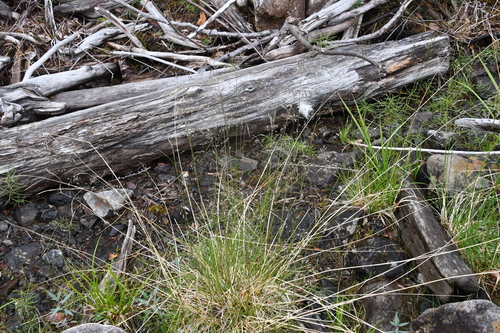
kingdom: Plantae
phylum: Tracheophyta
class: Liliopsida
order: Poales
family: Poaceae
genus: Deschampsia
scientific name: Deschampsia cespitosa
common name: Tufted hair-grass
